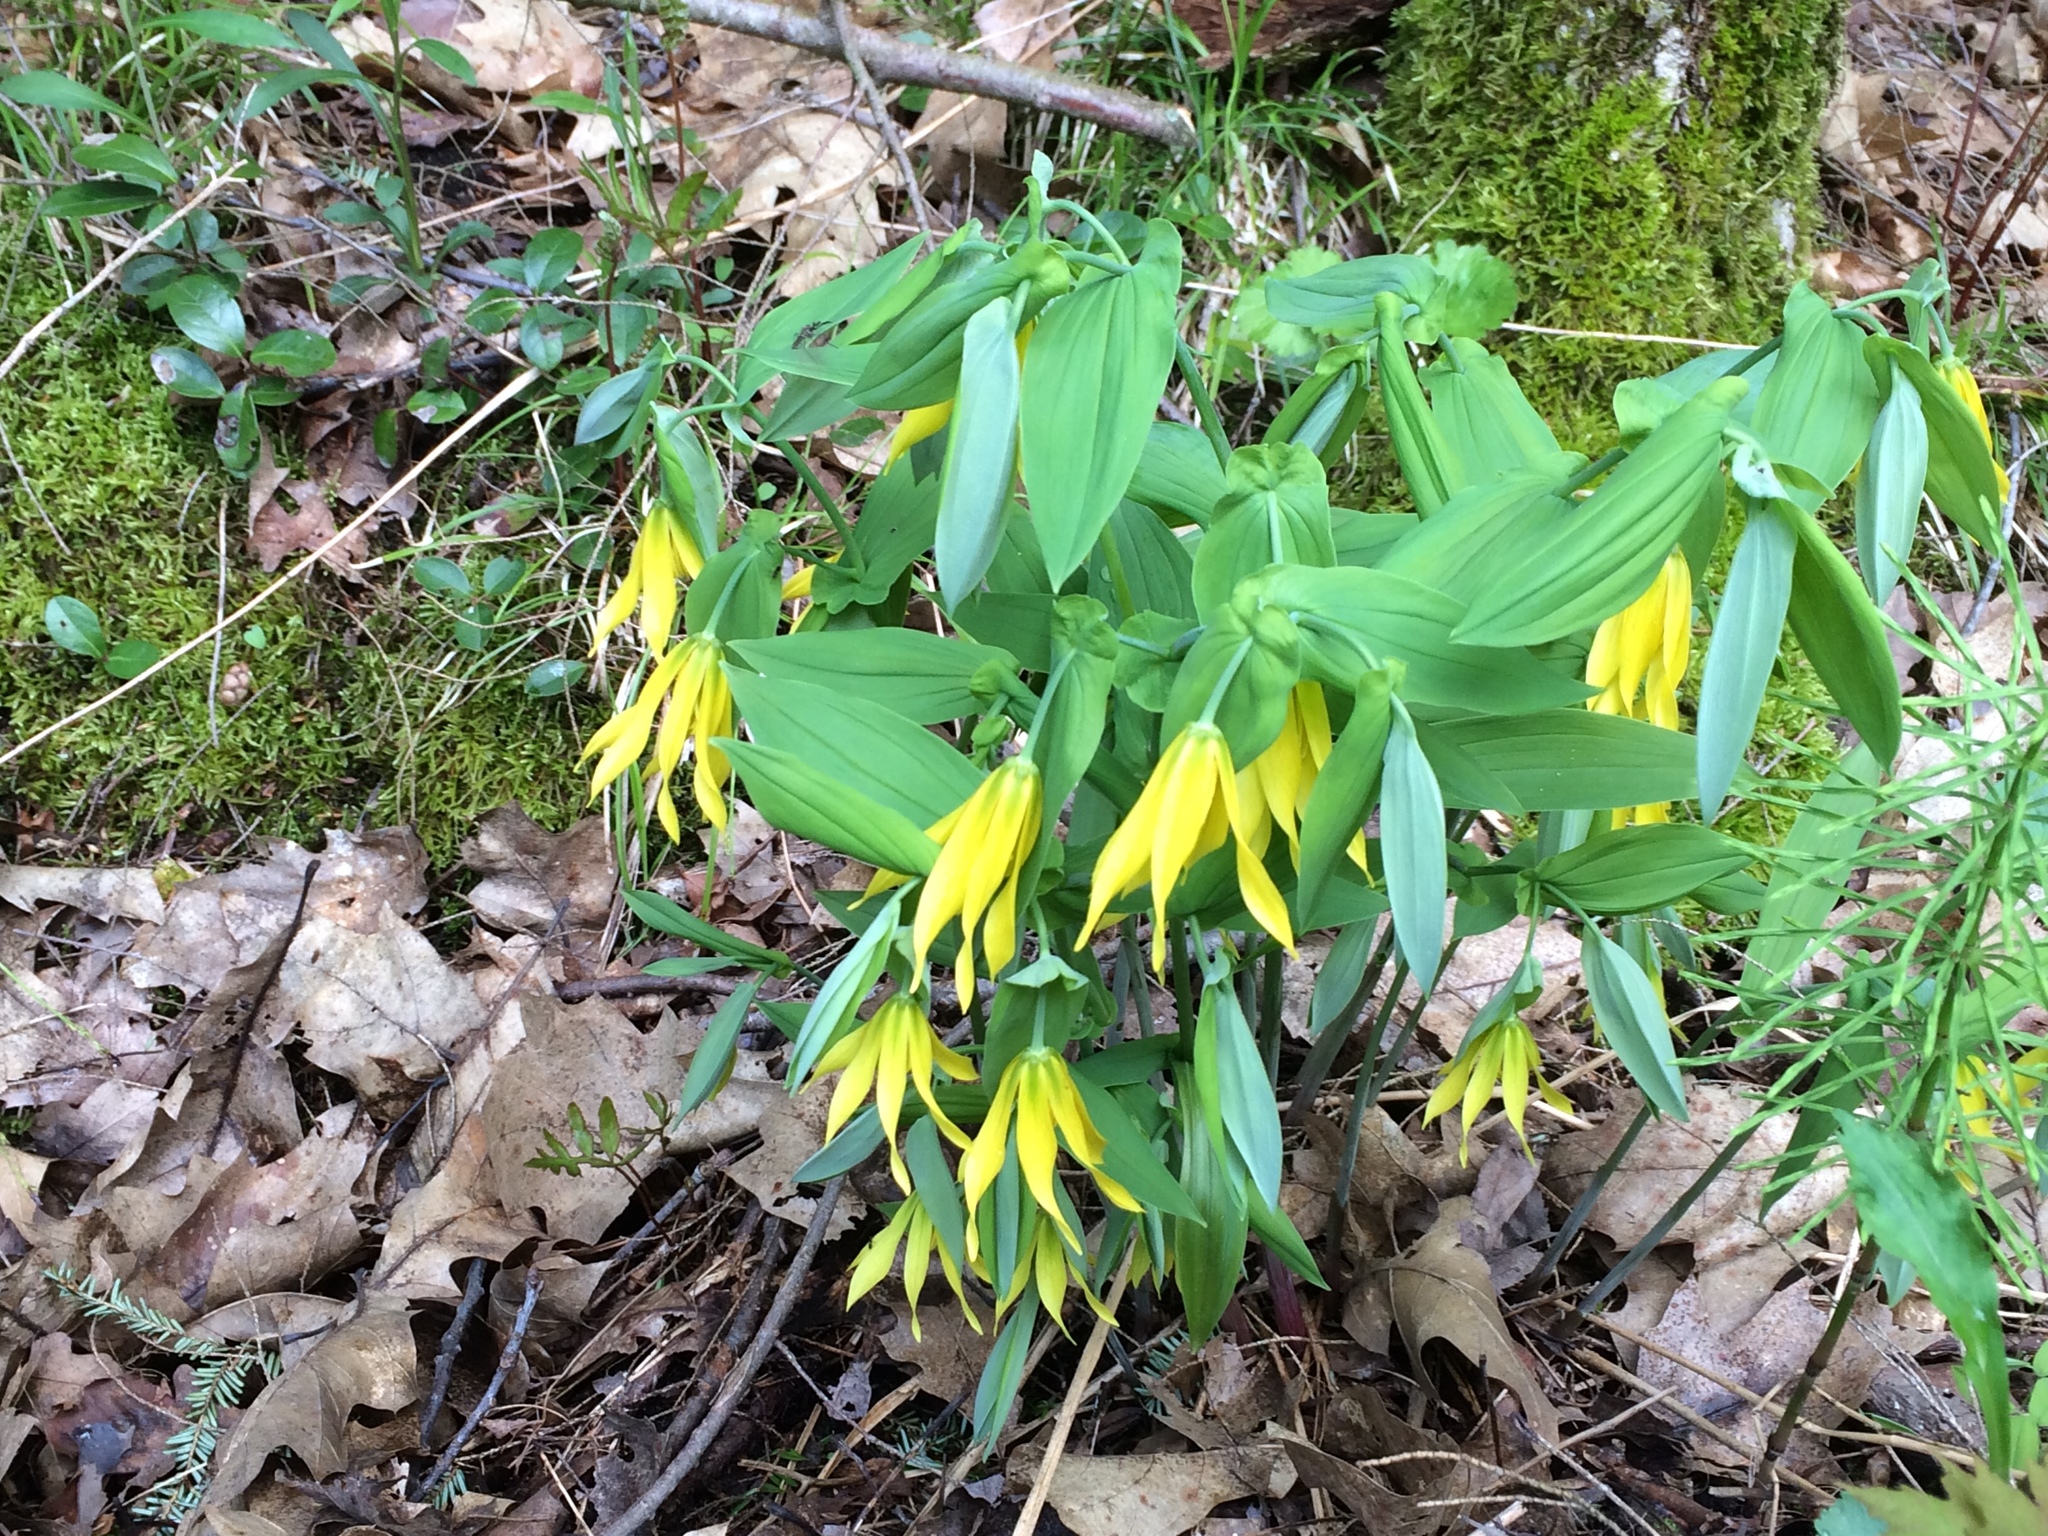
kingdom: Plantae
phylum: Tracheophyta
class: Liliopsida
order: Liliales
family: Colchicaceae
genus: Uvularia
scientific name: Uvularia grandiflora
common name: Bellwort
